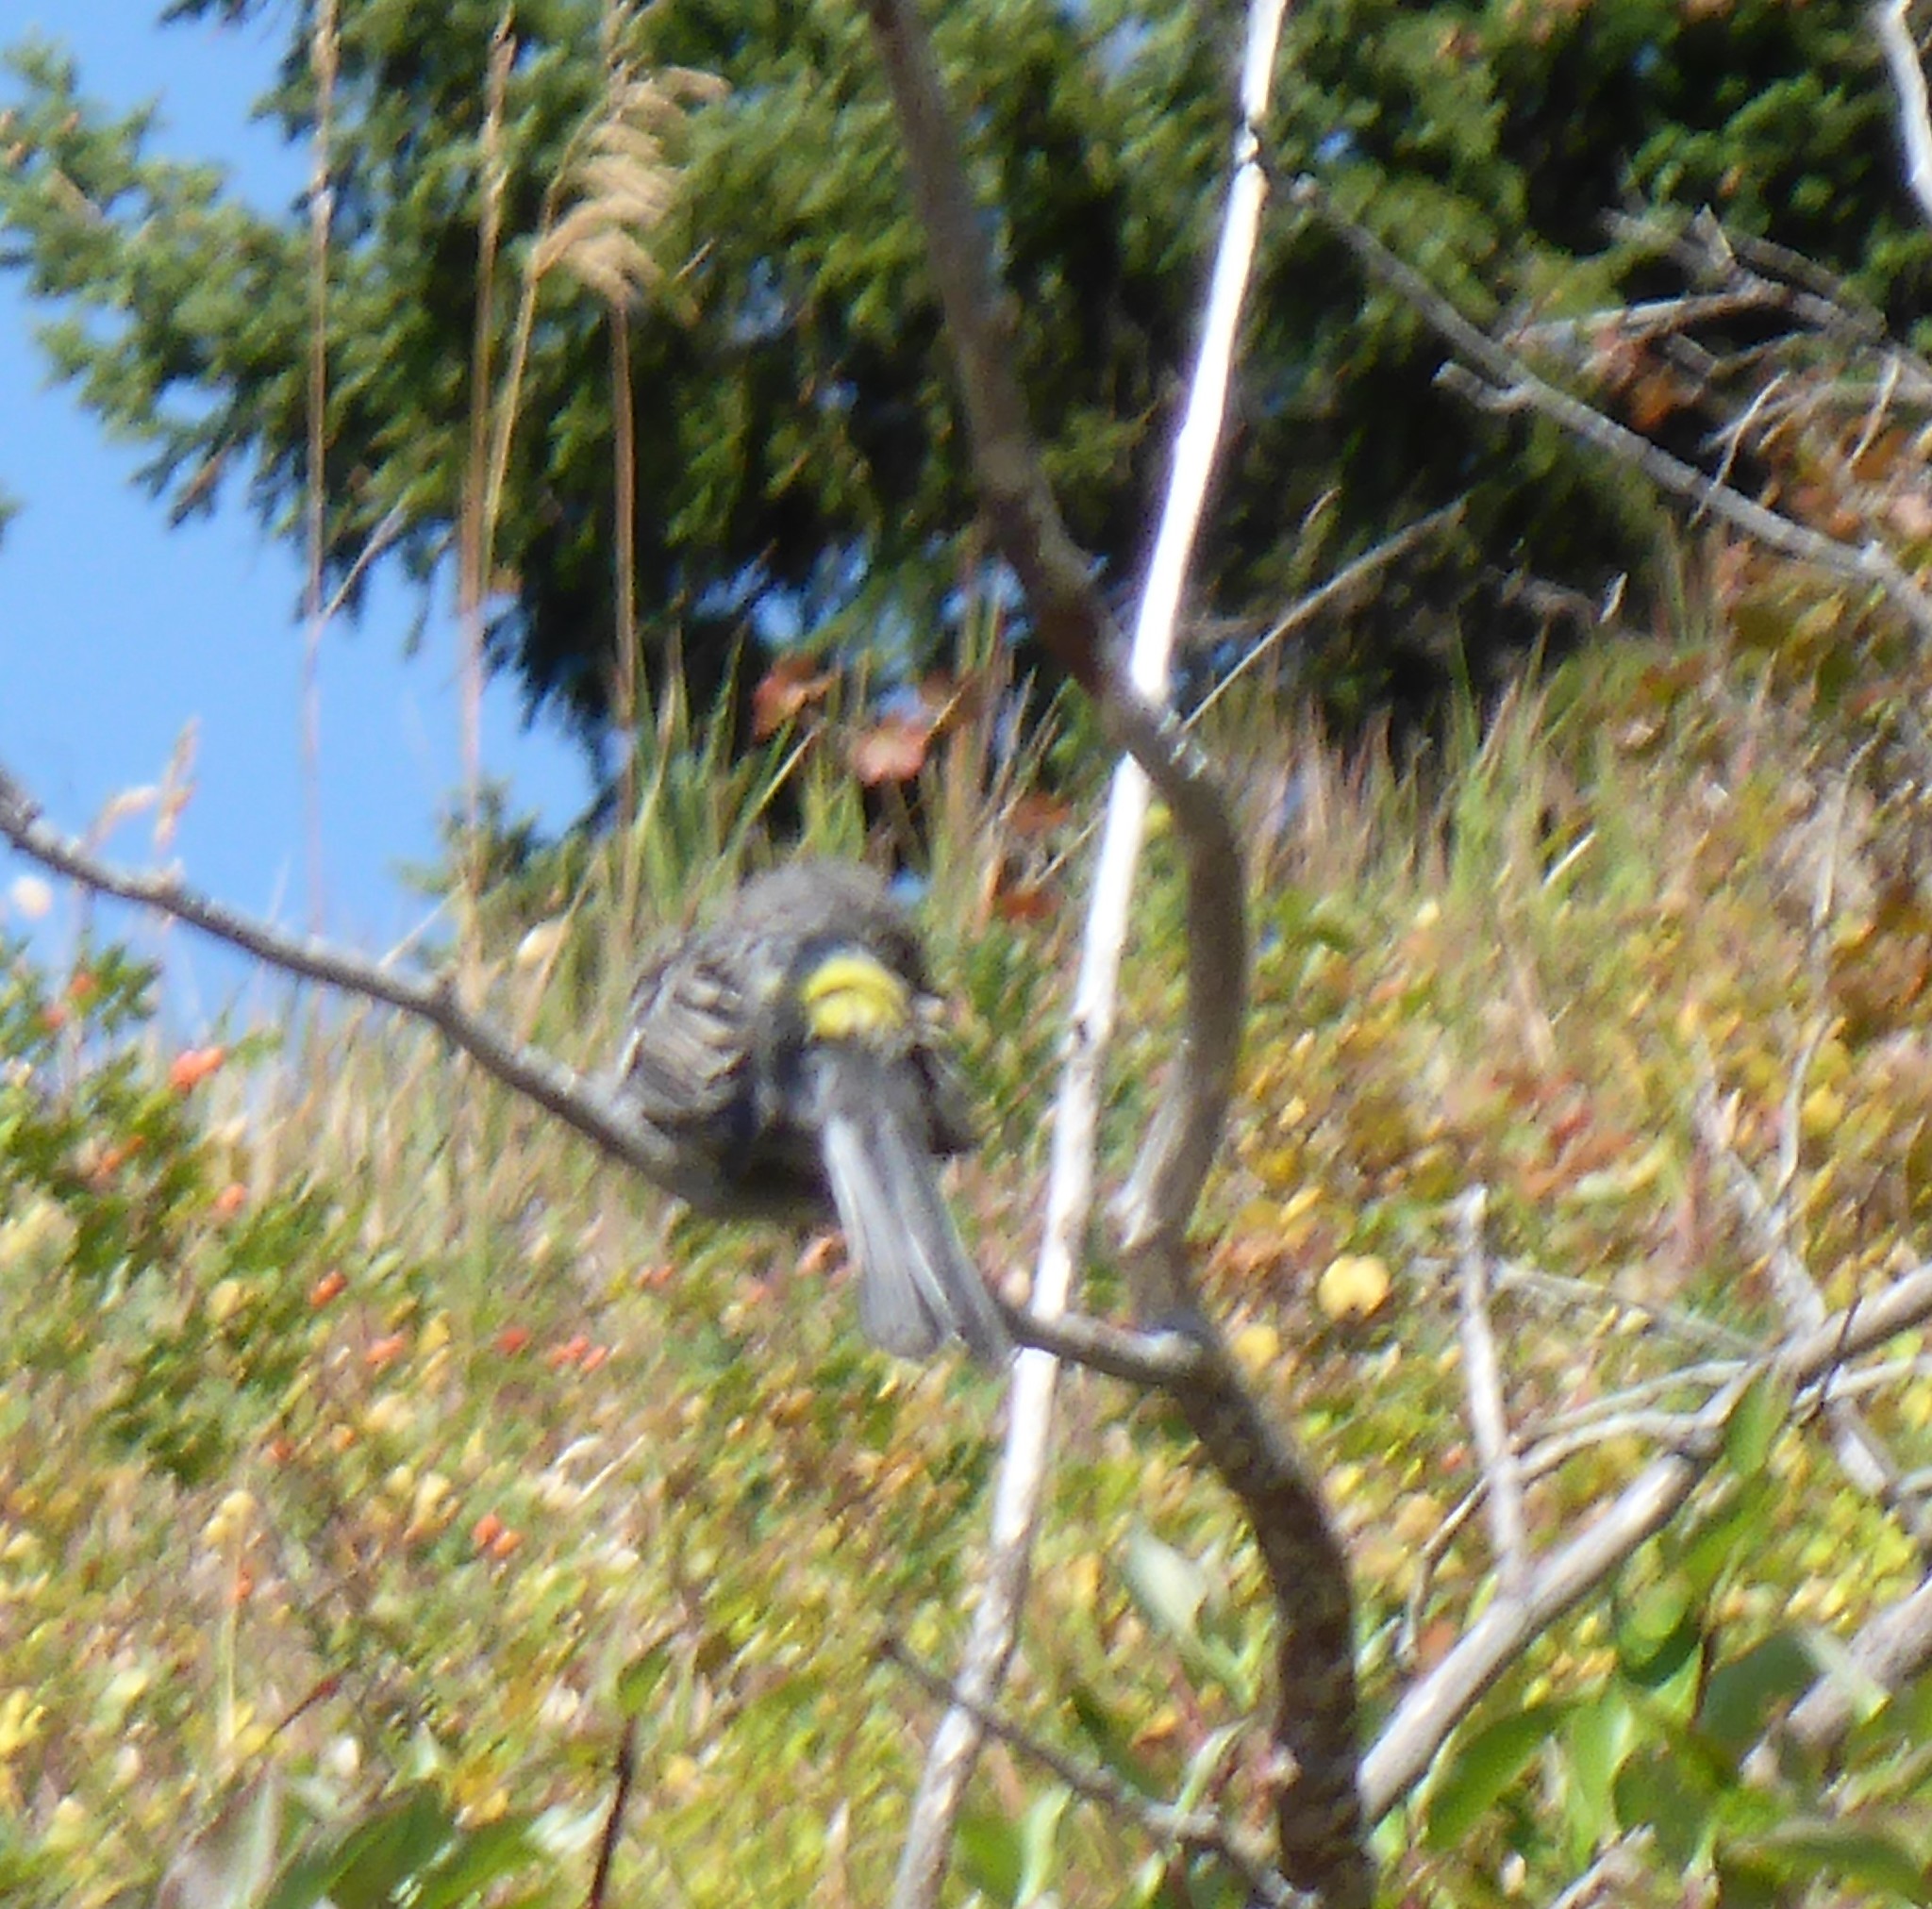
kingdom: Animalia
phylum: Chordata
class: Aves
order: Passeriformes
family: Parulidae
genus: Setophaga
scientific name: Setophaga coronata
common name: Myrtle warbler
